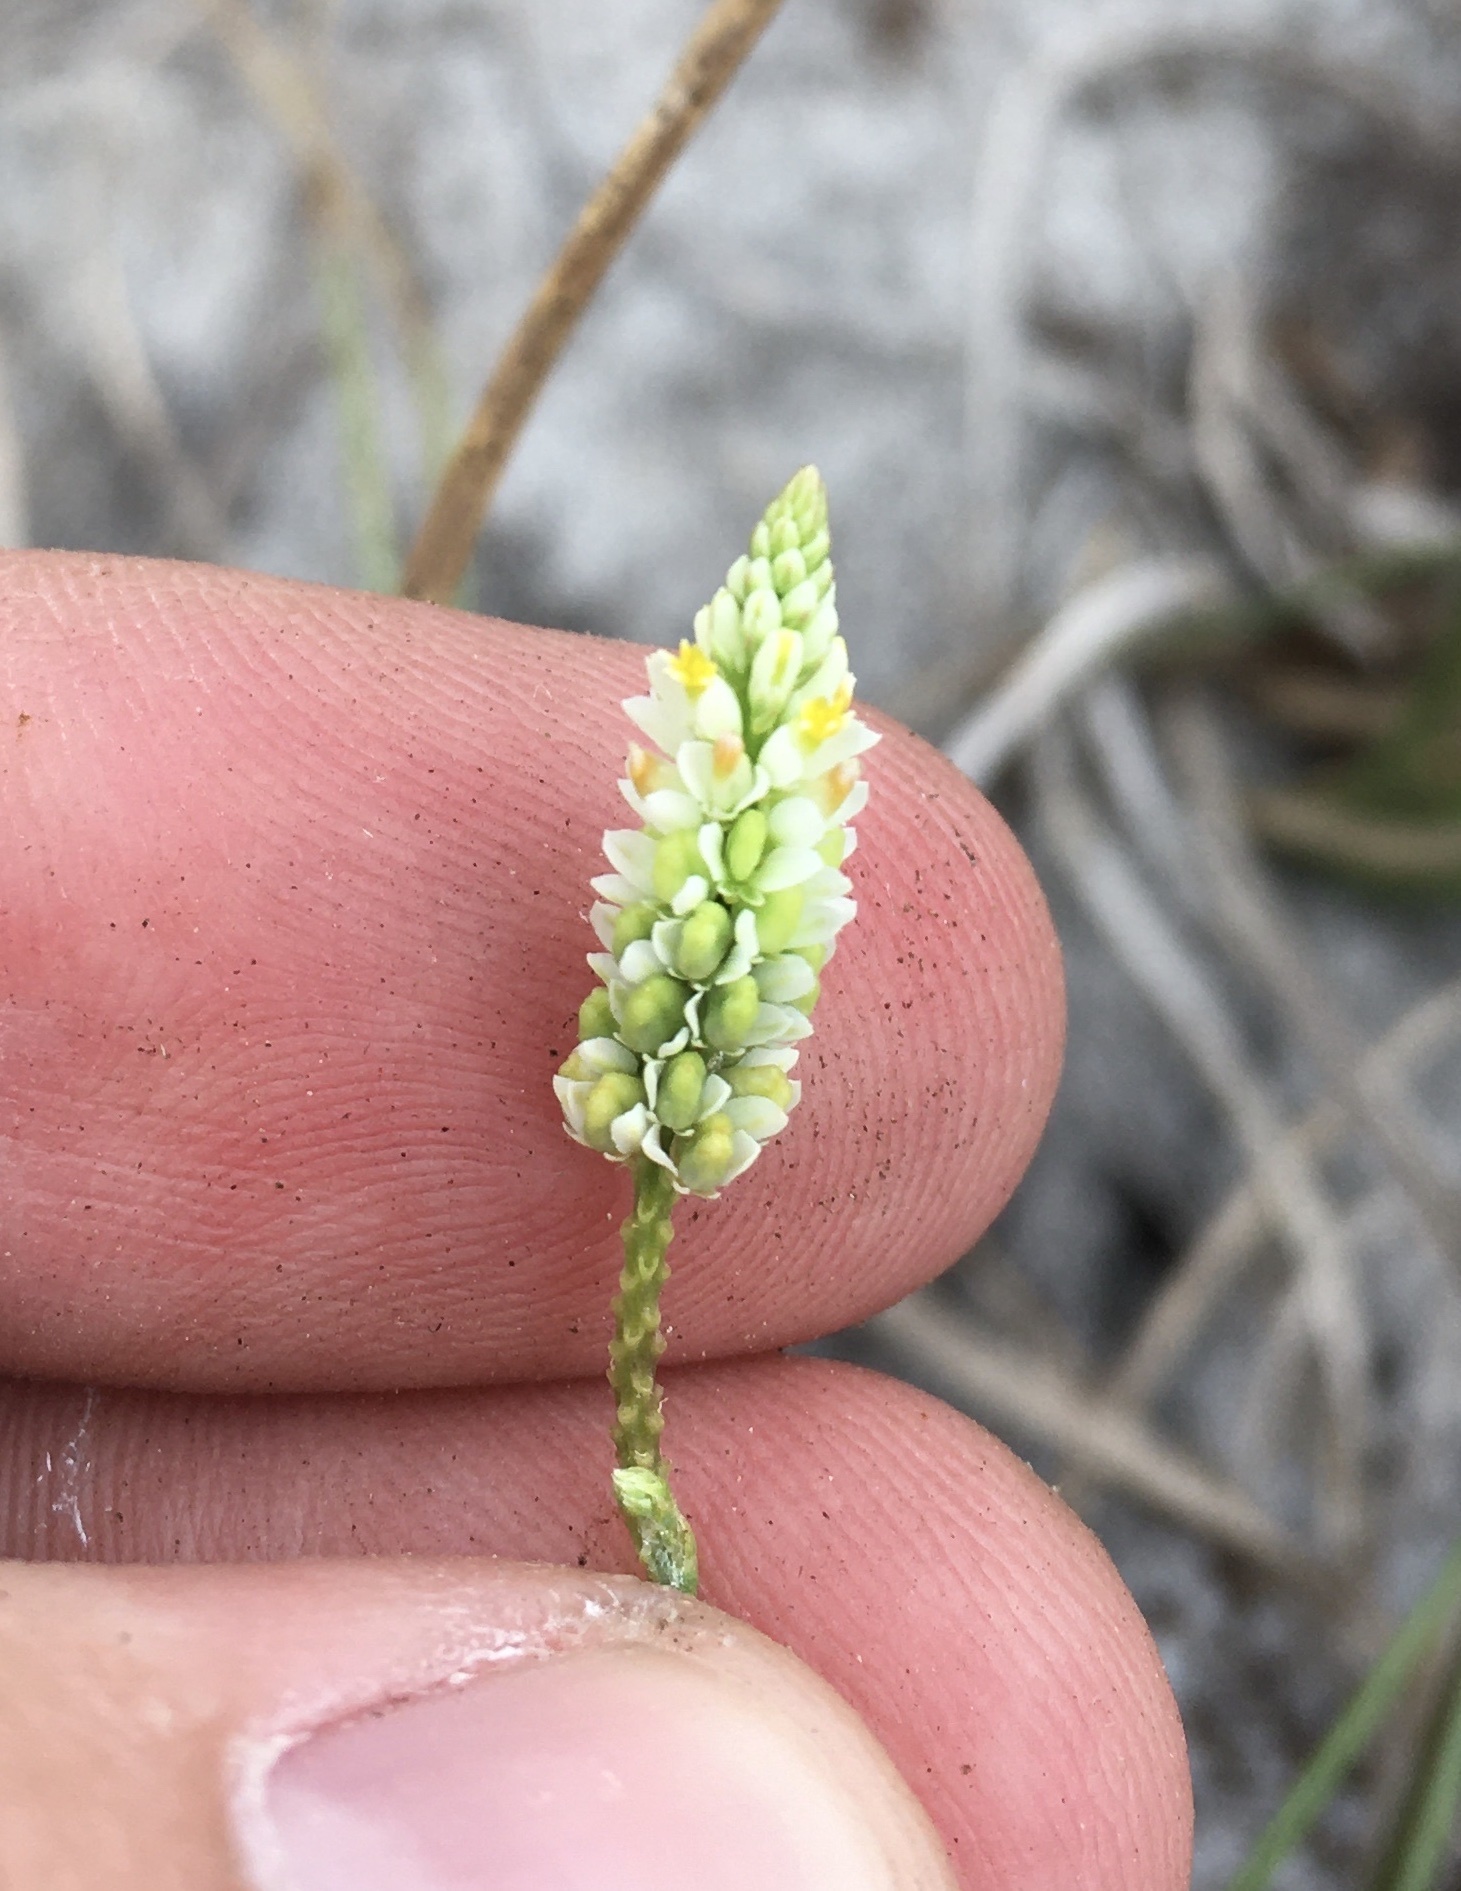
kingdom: Plantae
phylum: Tracheophyta
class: Magnoliopsida
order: Fabales
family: Polygalaceae
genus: Polygala
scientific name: Polygala setacea
